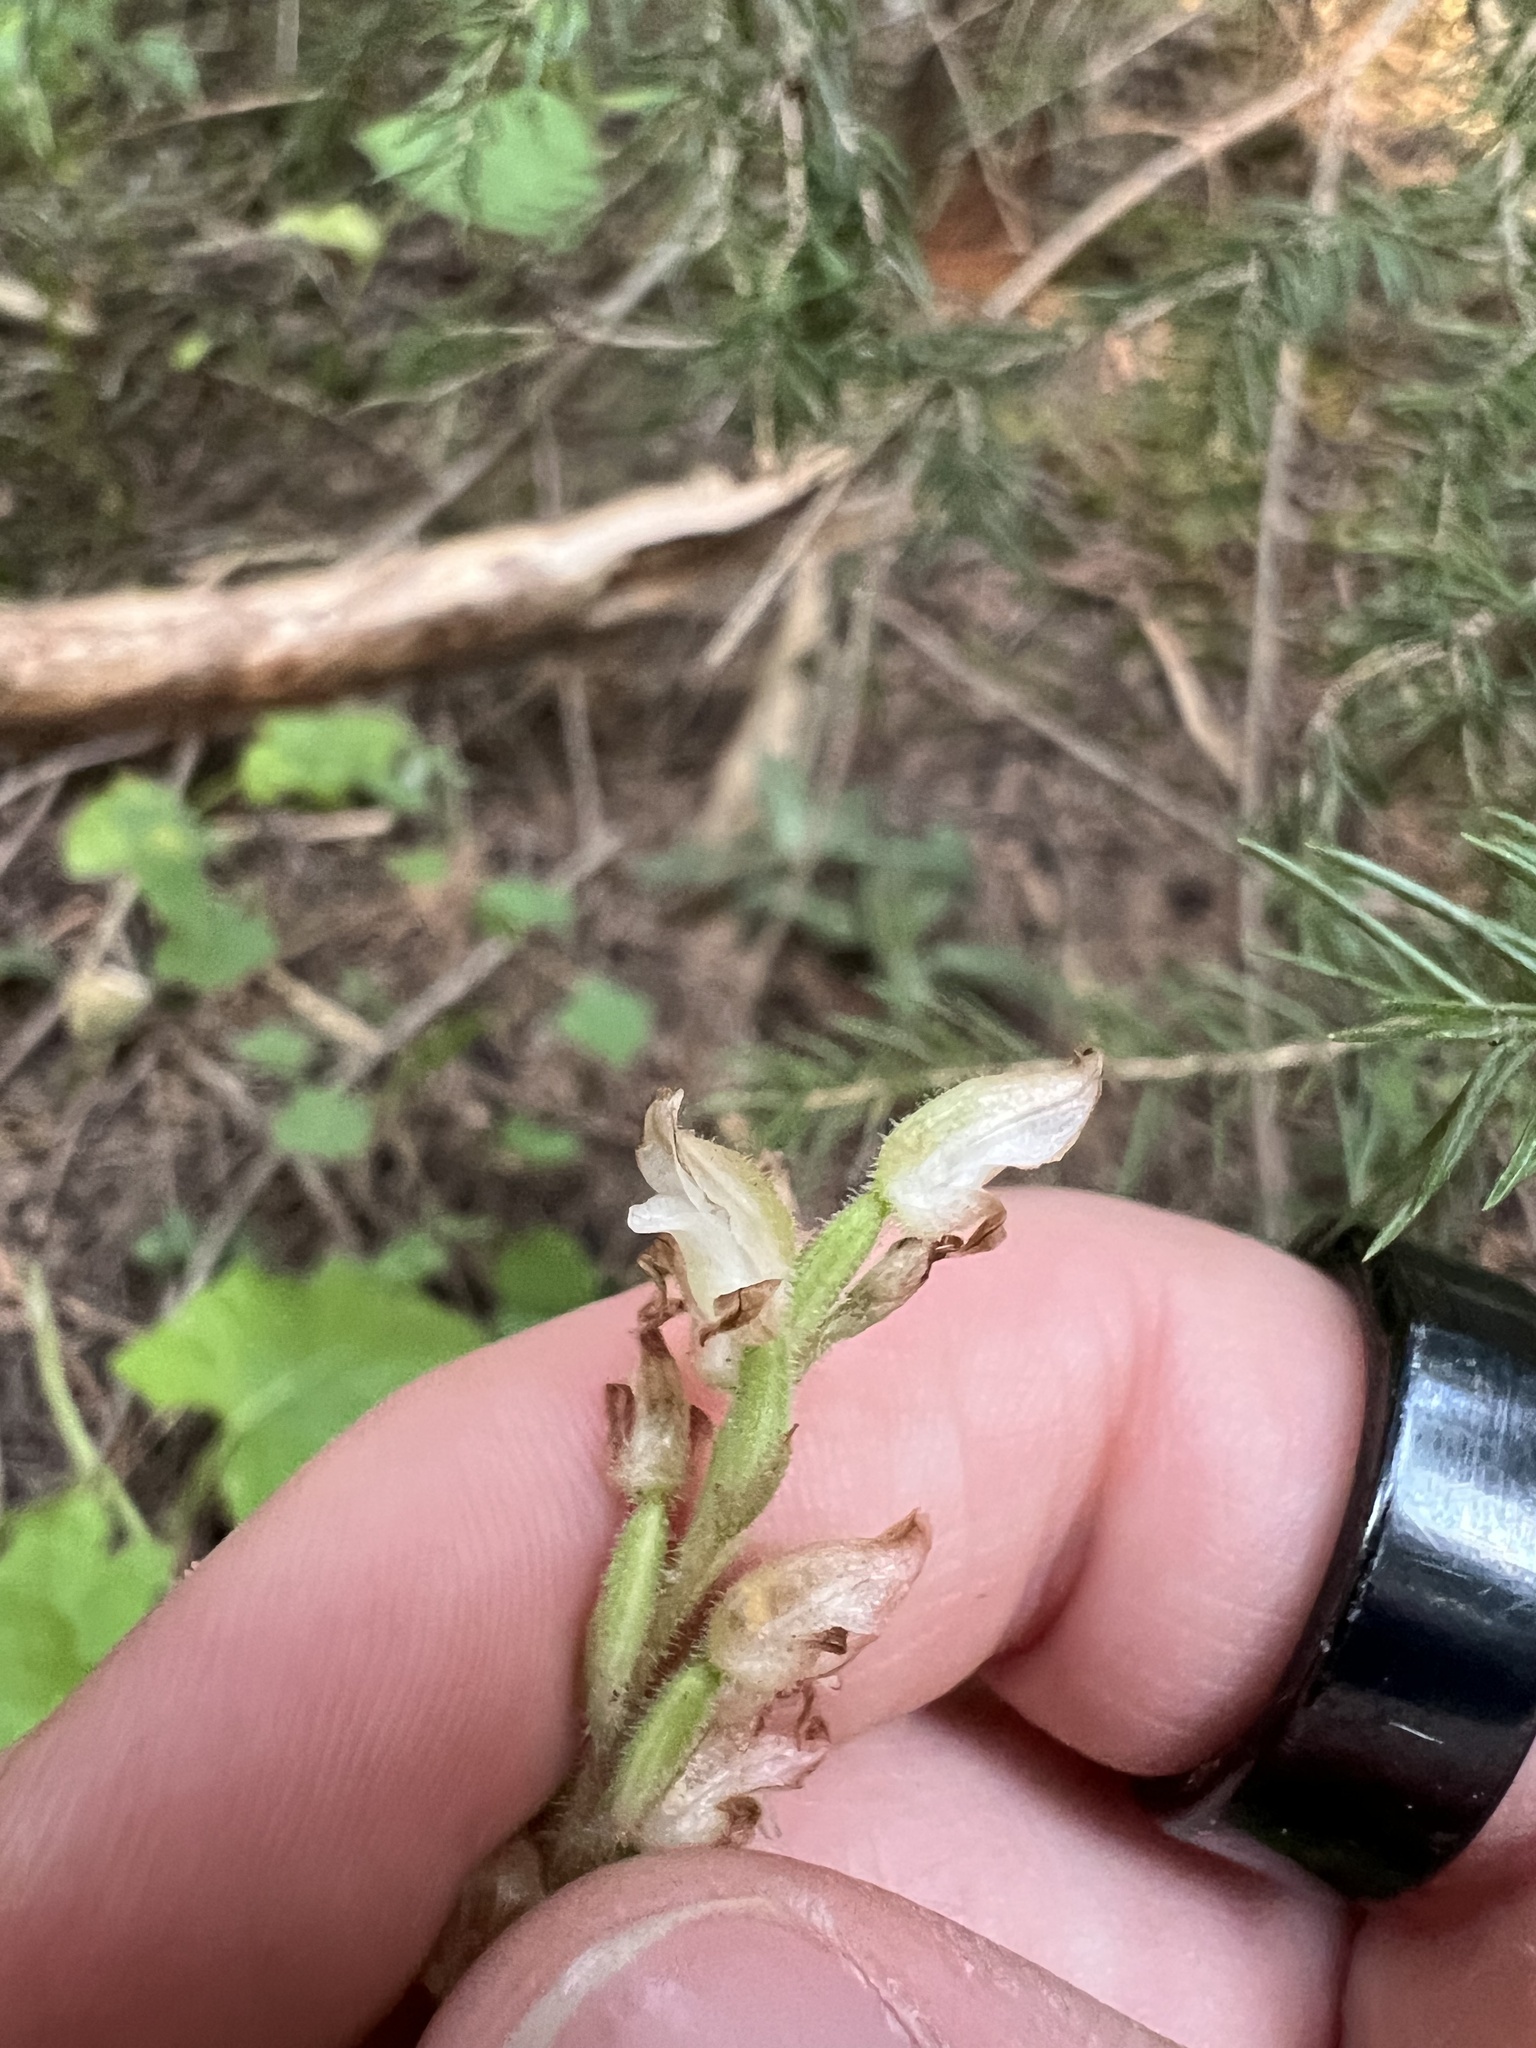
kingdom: Plantae
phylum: Tracheophyta
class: Liliopsida
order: Asparagales
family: Orchidaceae
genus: Goodyera
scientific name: Goodyera oblongifolia
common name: Giant rattlesnake-plantain
